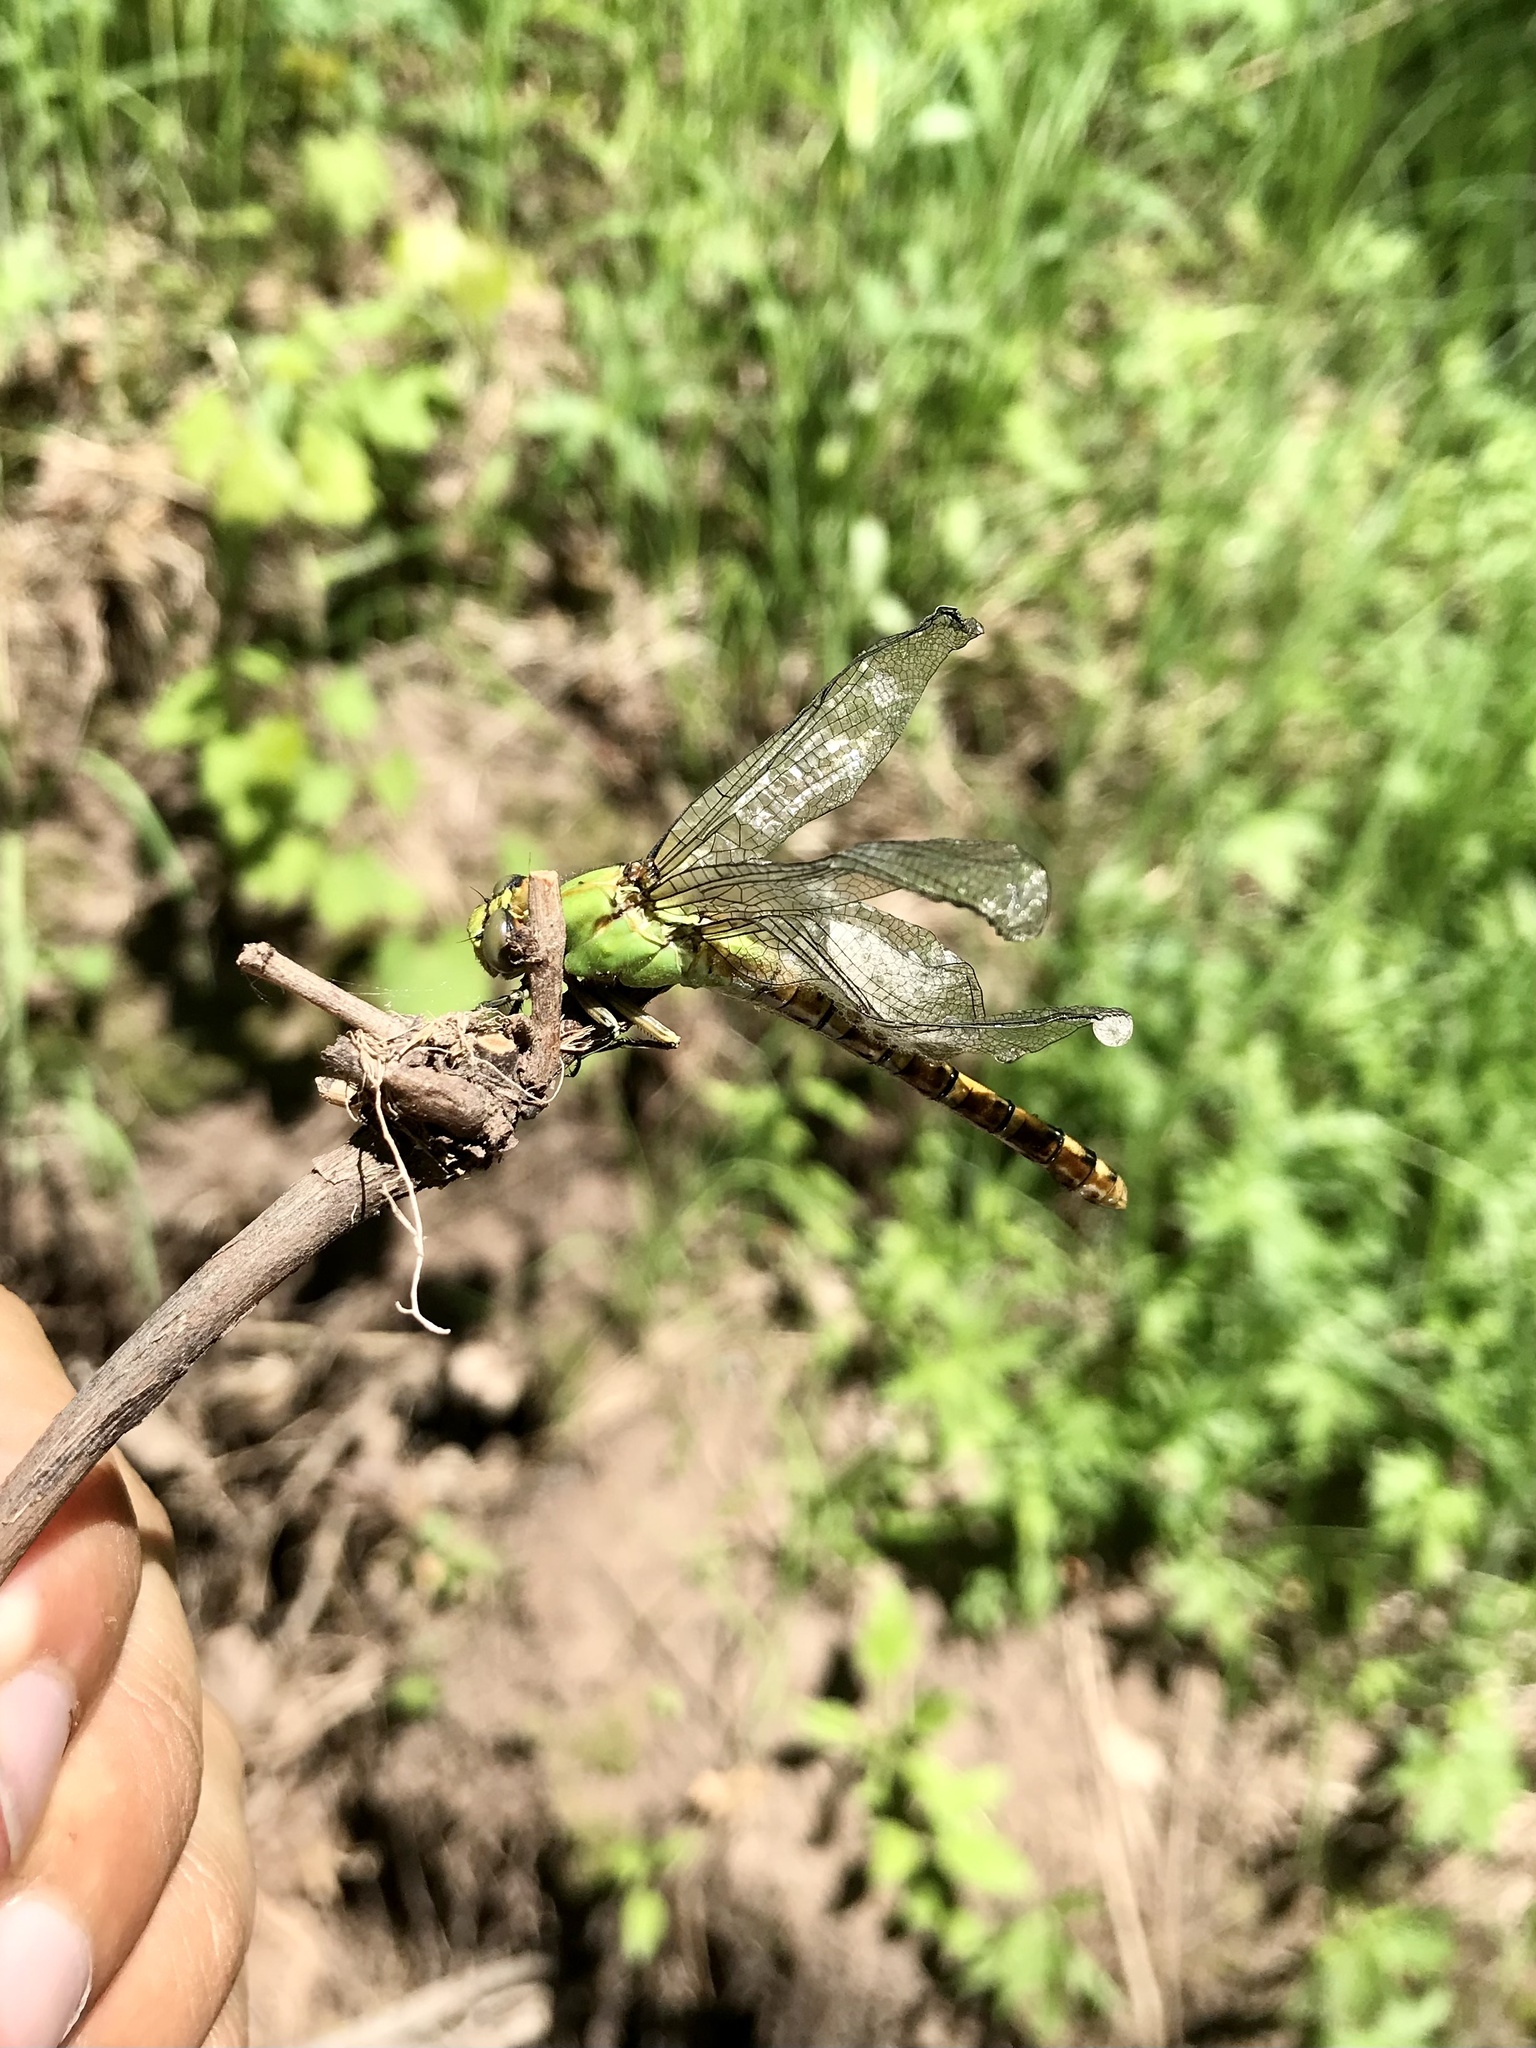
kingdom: Animalia
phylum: Arthropoda
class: Insecta
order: Odonata
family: Gomphidae
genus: Ophiogomphus
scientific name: Ophiogomphus rupinsulensis
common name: Rusty snaketail
